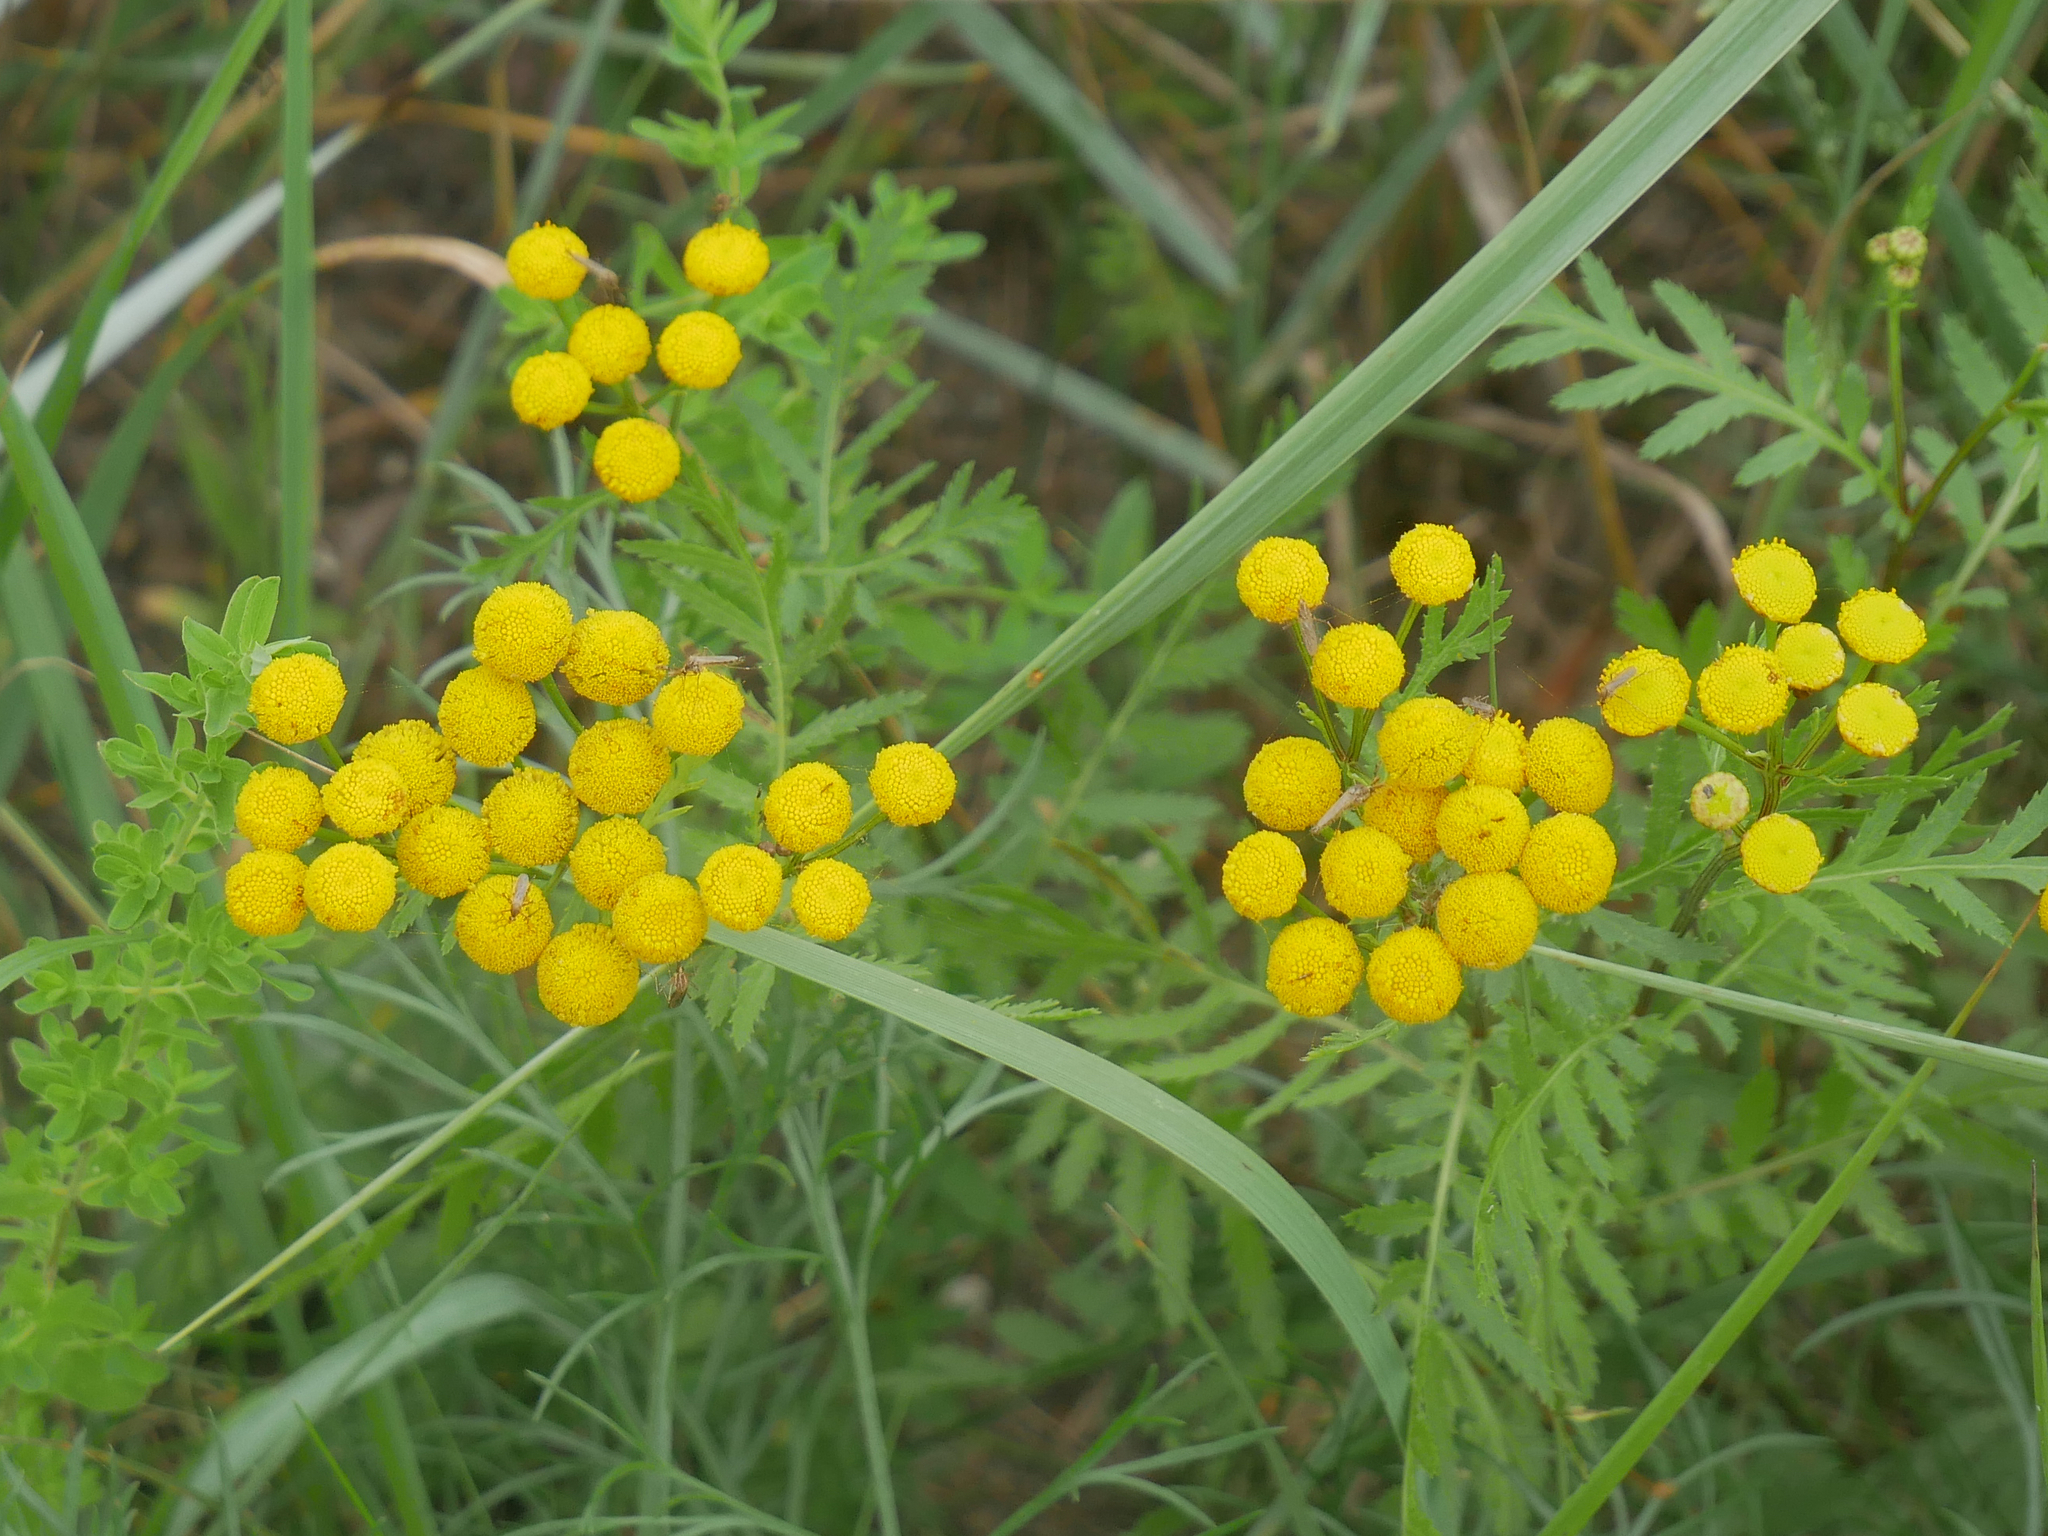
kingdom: Plantae
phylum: Tracheophyta
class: Magnoliopsida
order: Asterales
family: Asteraceae
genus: Tanacetum
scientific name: Tanacetum vulgare
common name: Common tansy
